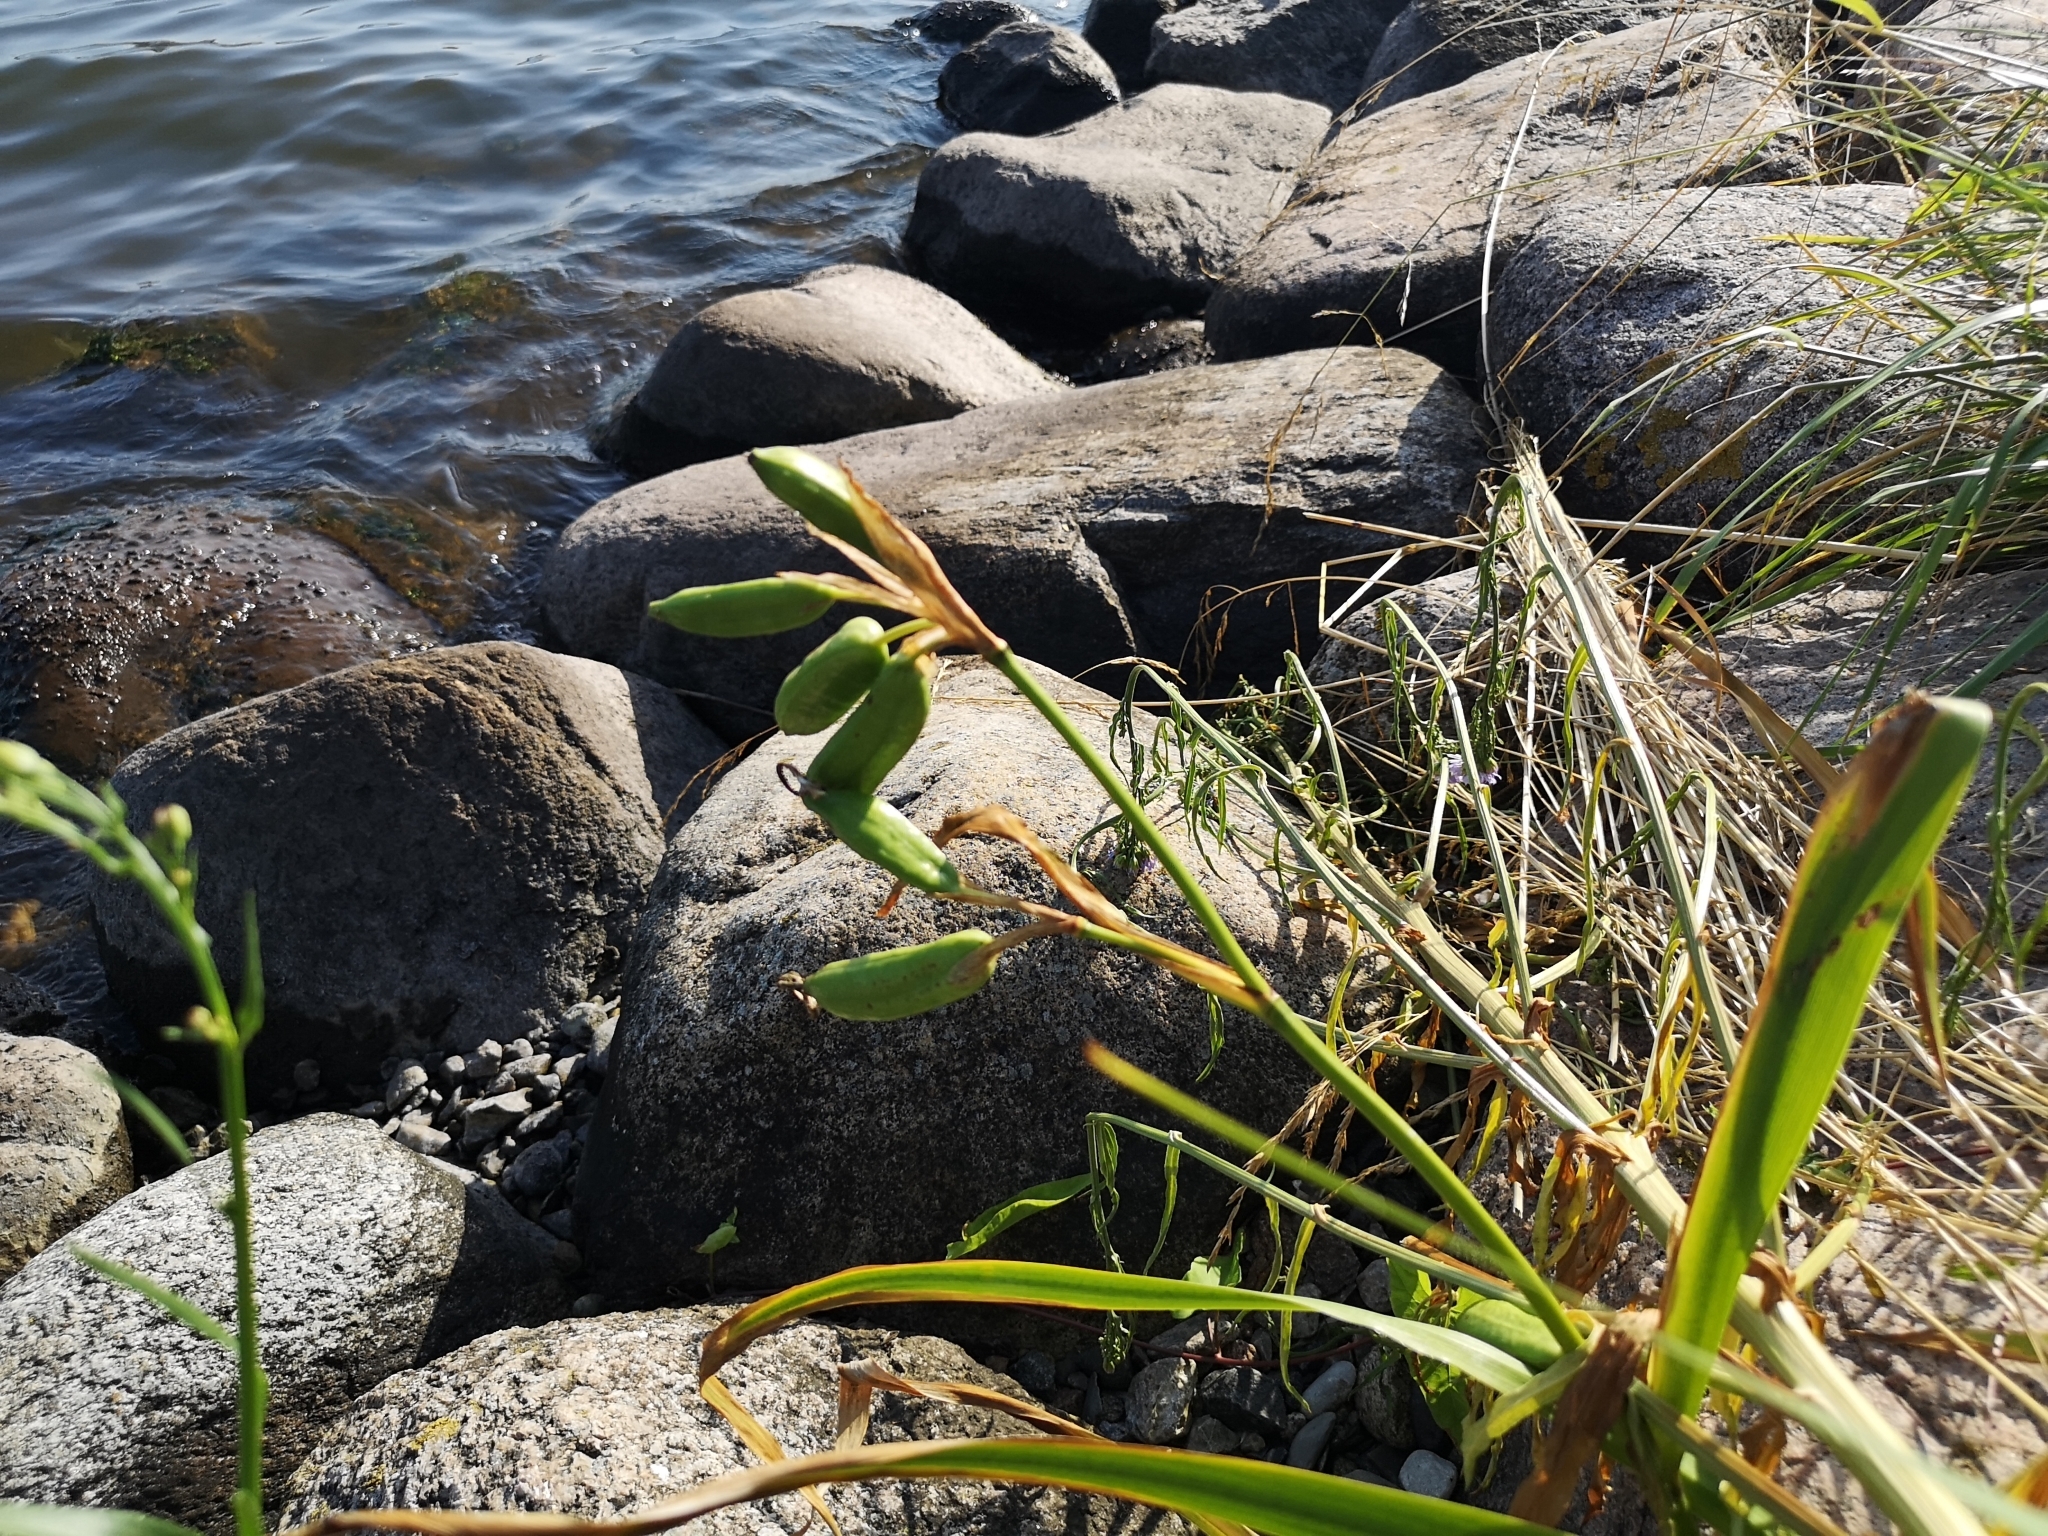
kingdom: Plantae
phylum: Tracheophyta
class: Liliopsida
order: Asparagales
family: Iridaceae
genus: Iris
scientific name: Iris pseudacorus
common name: Yellow flag
